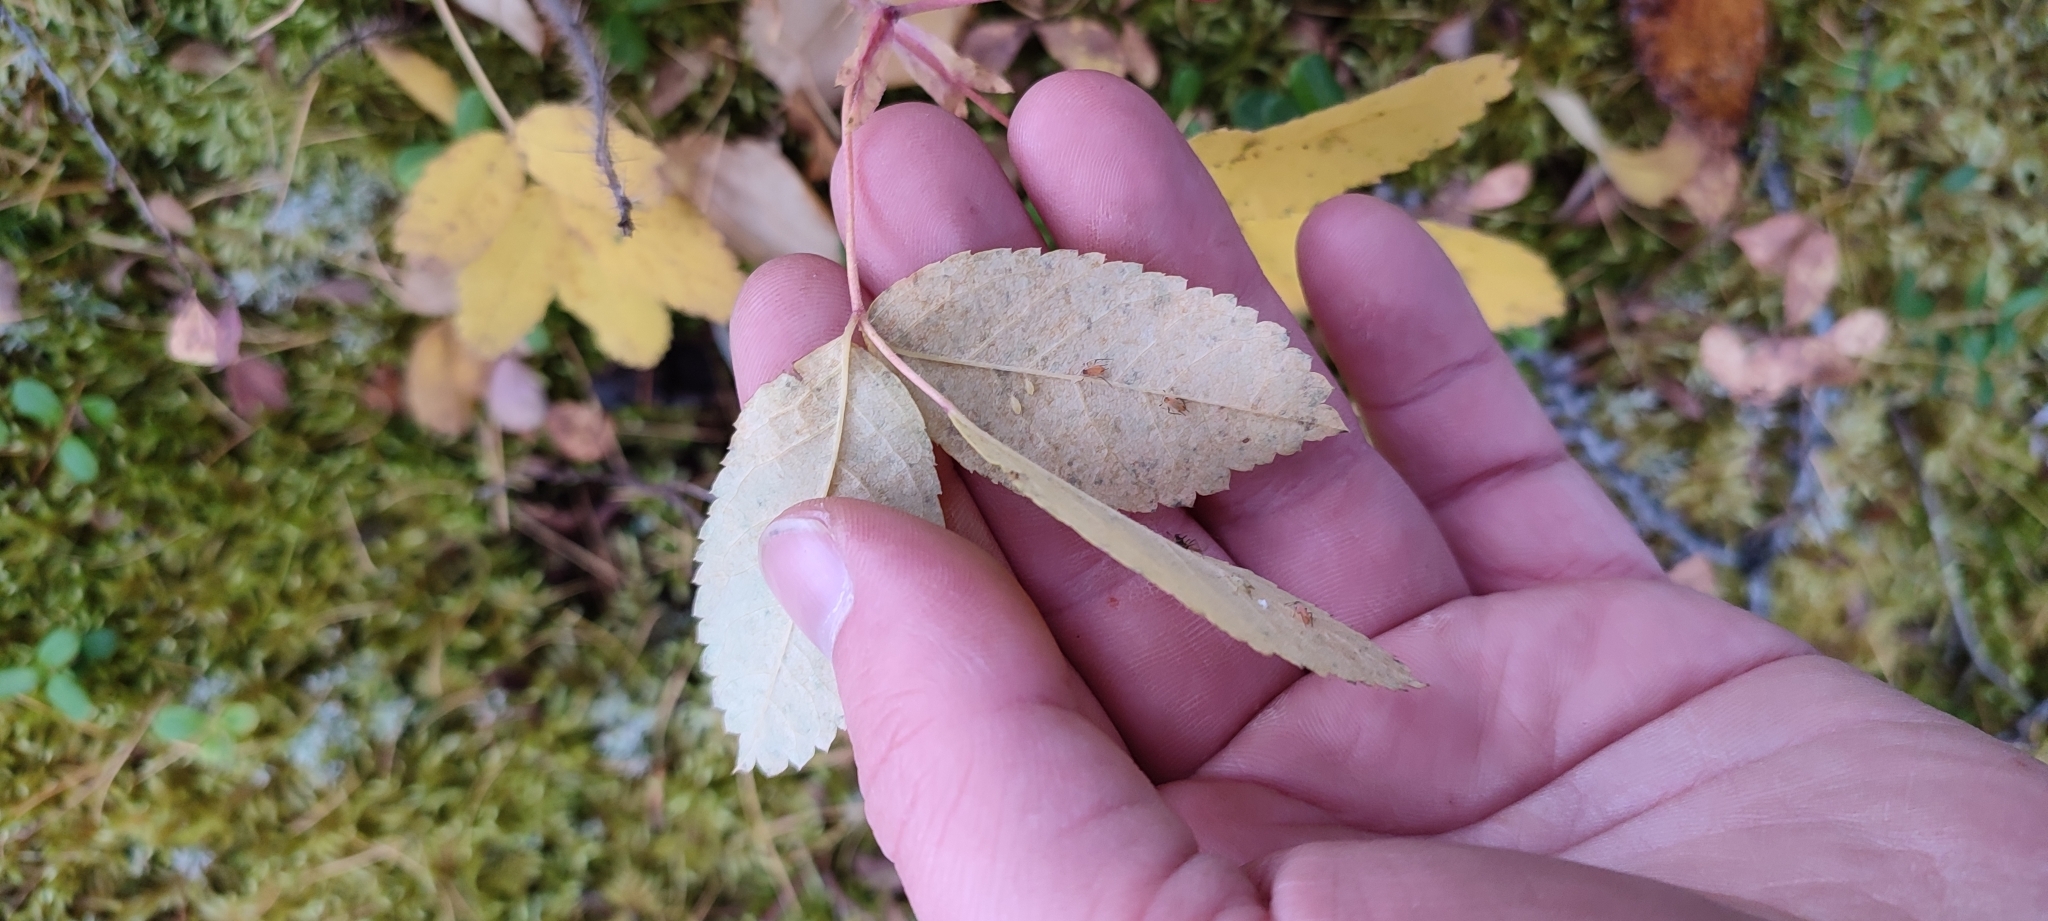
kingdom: Plantae
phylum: Tracheophyta
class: Magnoliopsida
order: Rosales
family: Rosaceae
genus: Rosa
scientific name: Rosa acicularis
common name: Prickly rose
